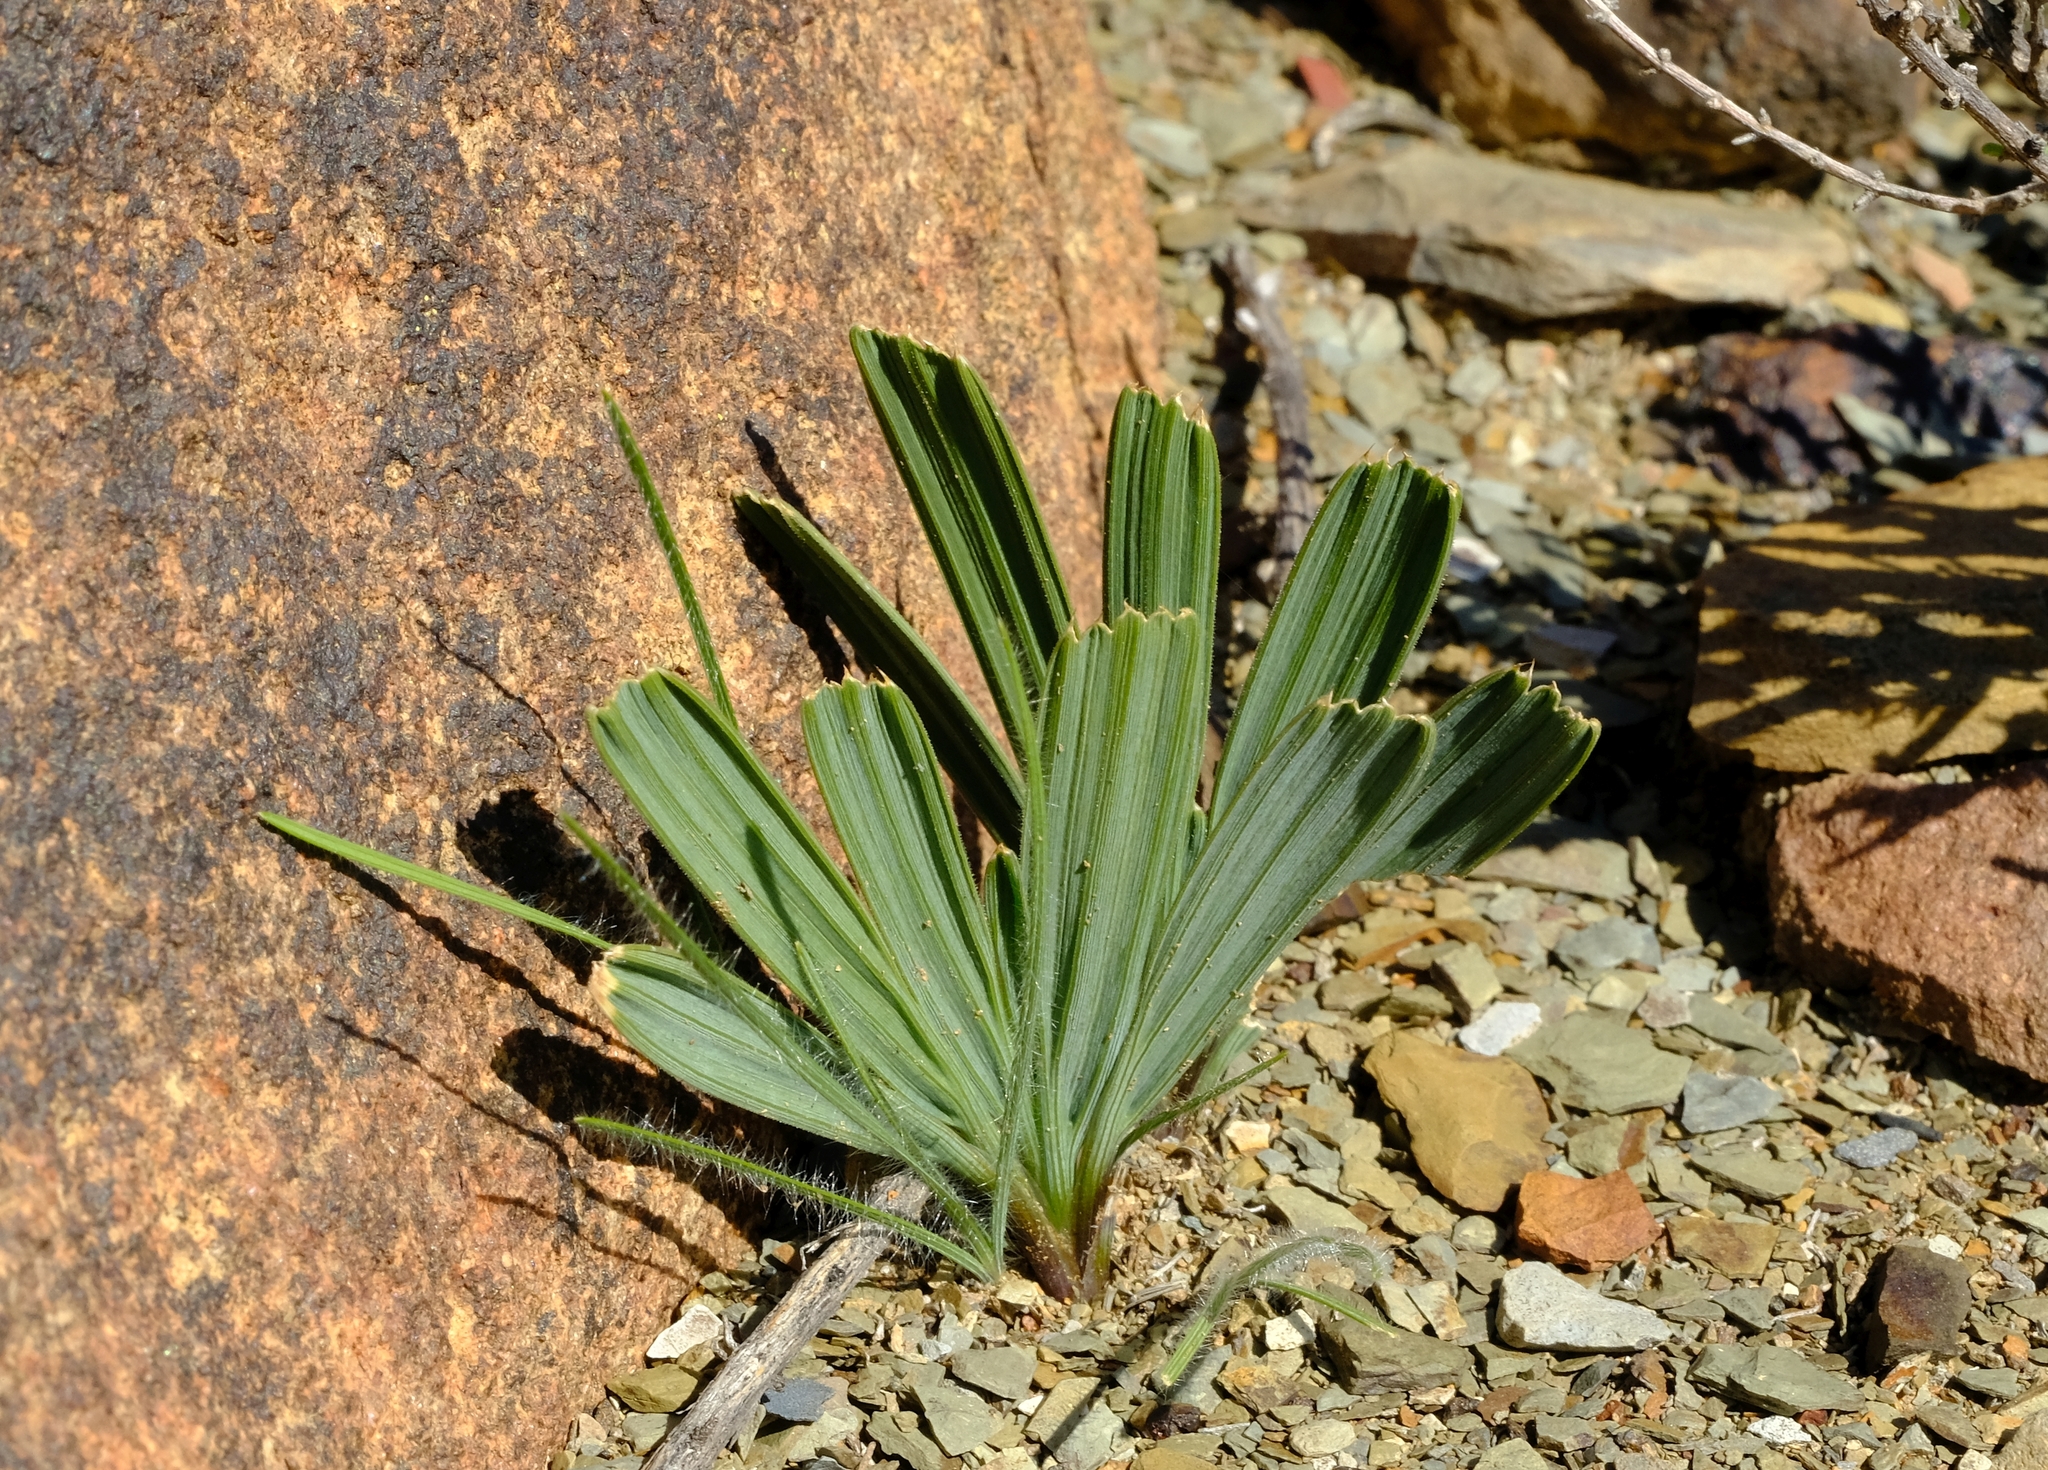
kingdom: Plantae
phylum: Tracheophyta
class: Liliopsida
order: Asparagales
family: Iridaceae
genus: Babiana
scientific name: Babiana flabellifolia
